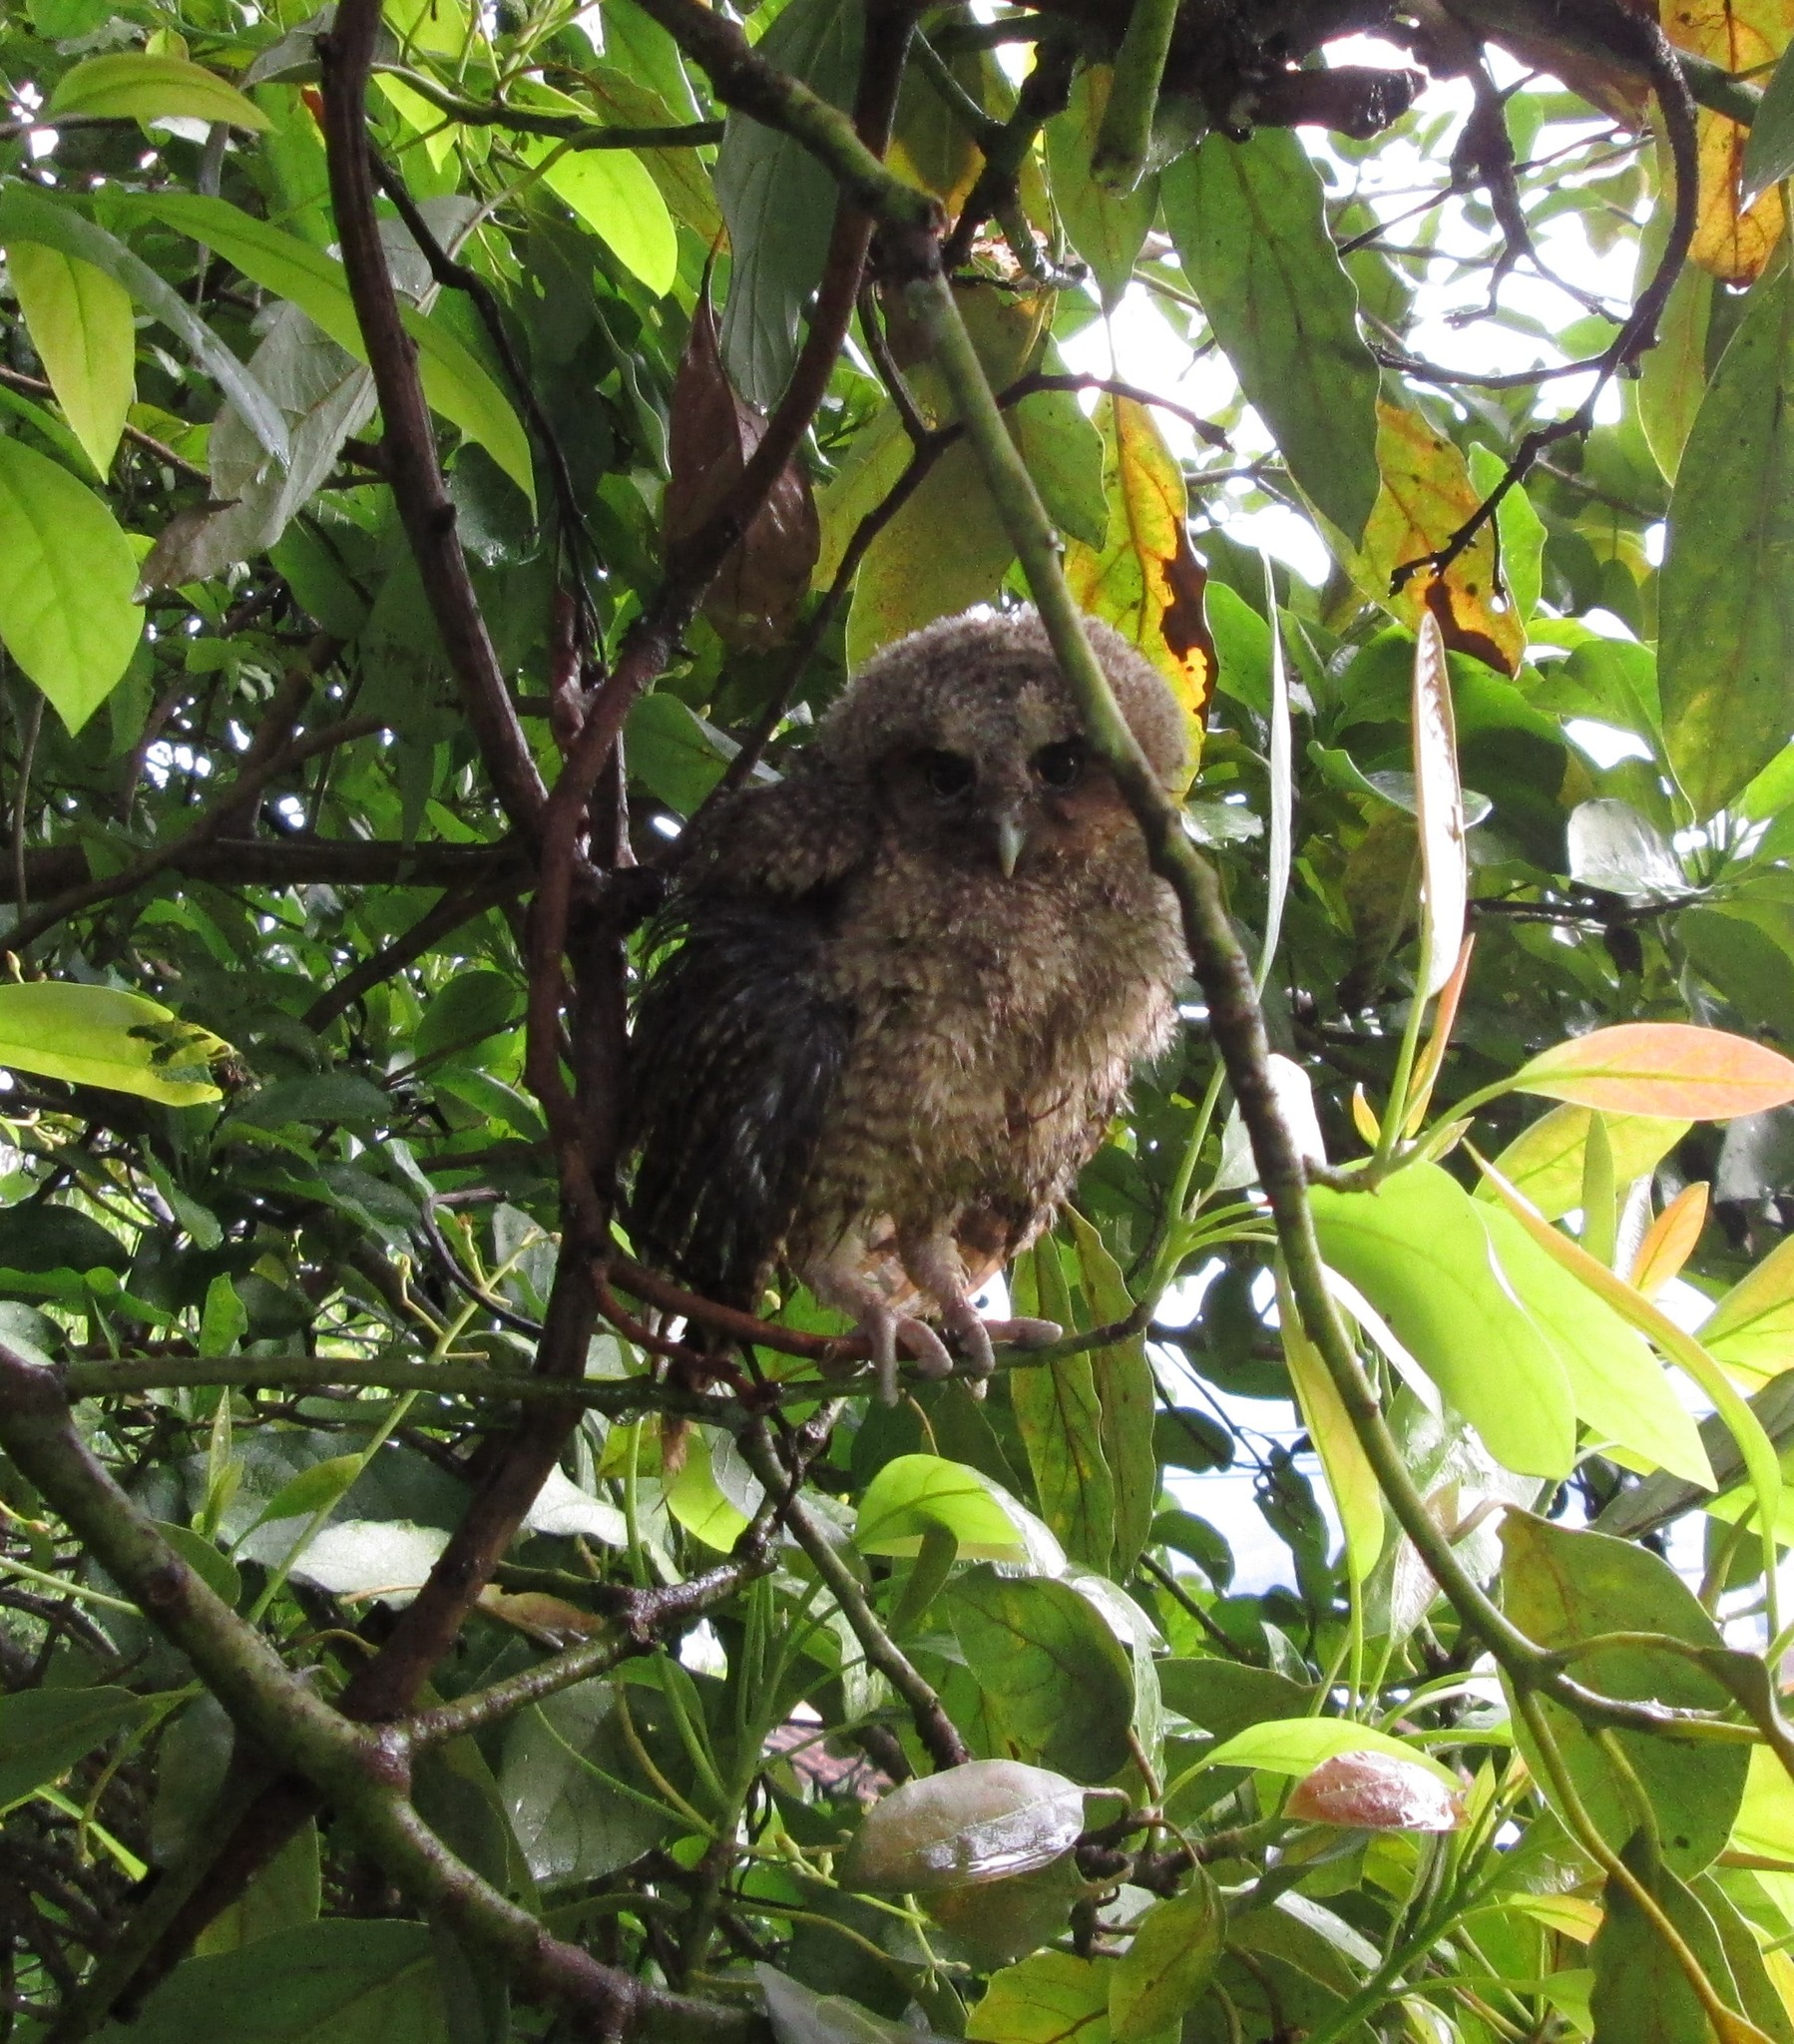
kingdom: Animalia
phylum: Chordata
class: Aves
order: Strigiformes
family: Strigidae
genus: Megascops
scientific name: Megascops choliba
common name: Tropical screech-owl
